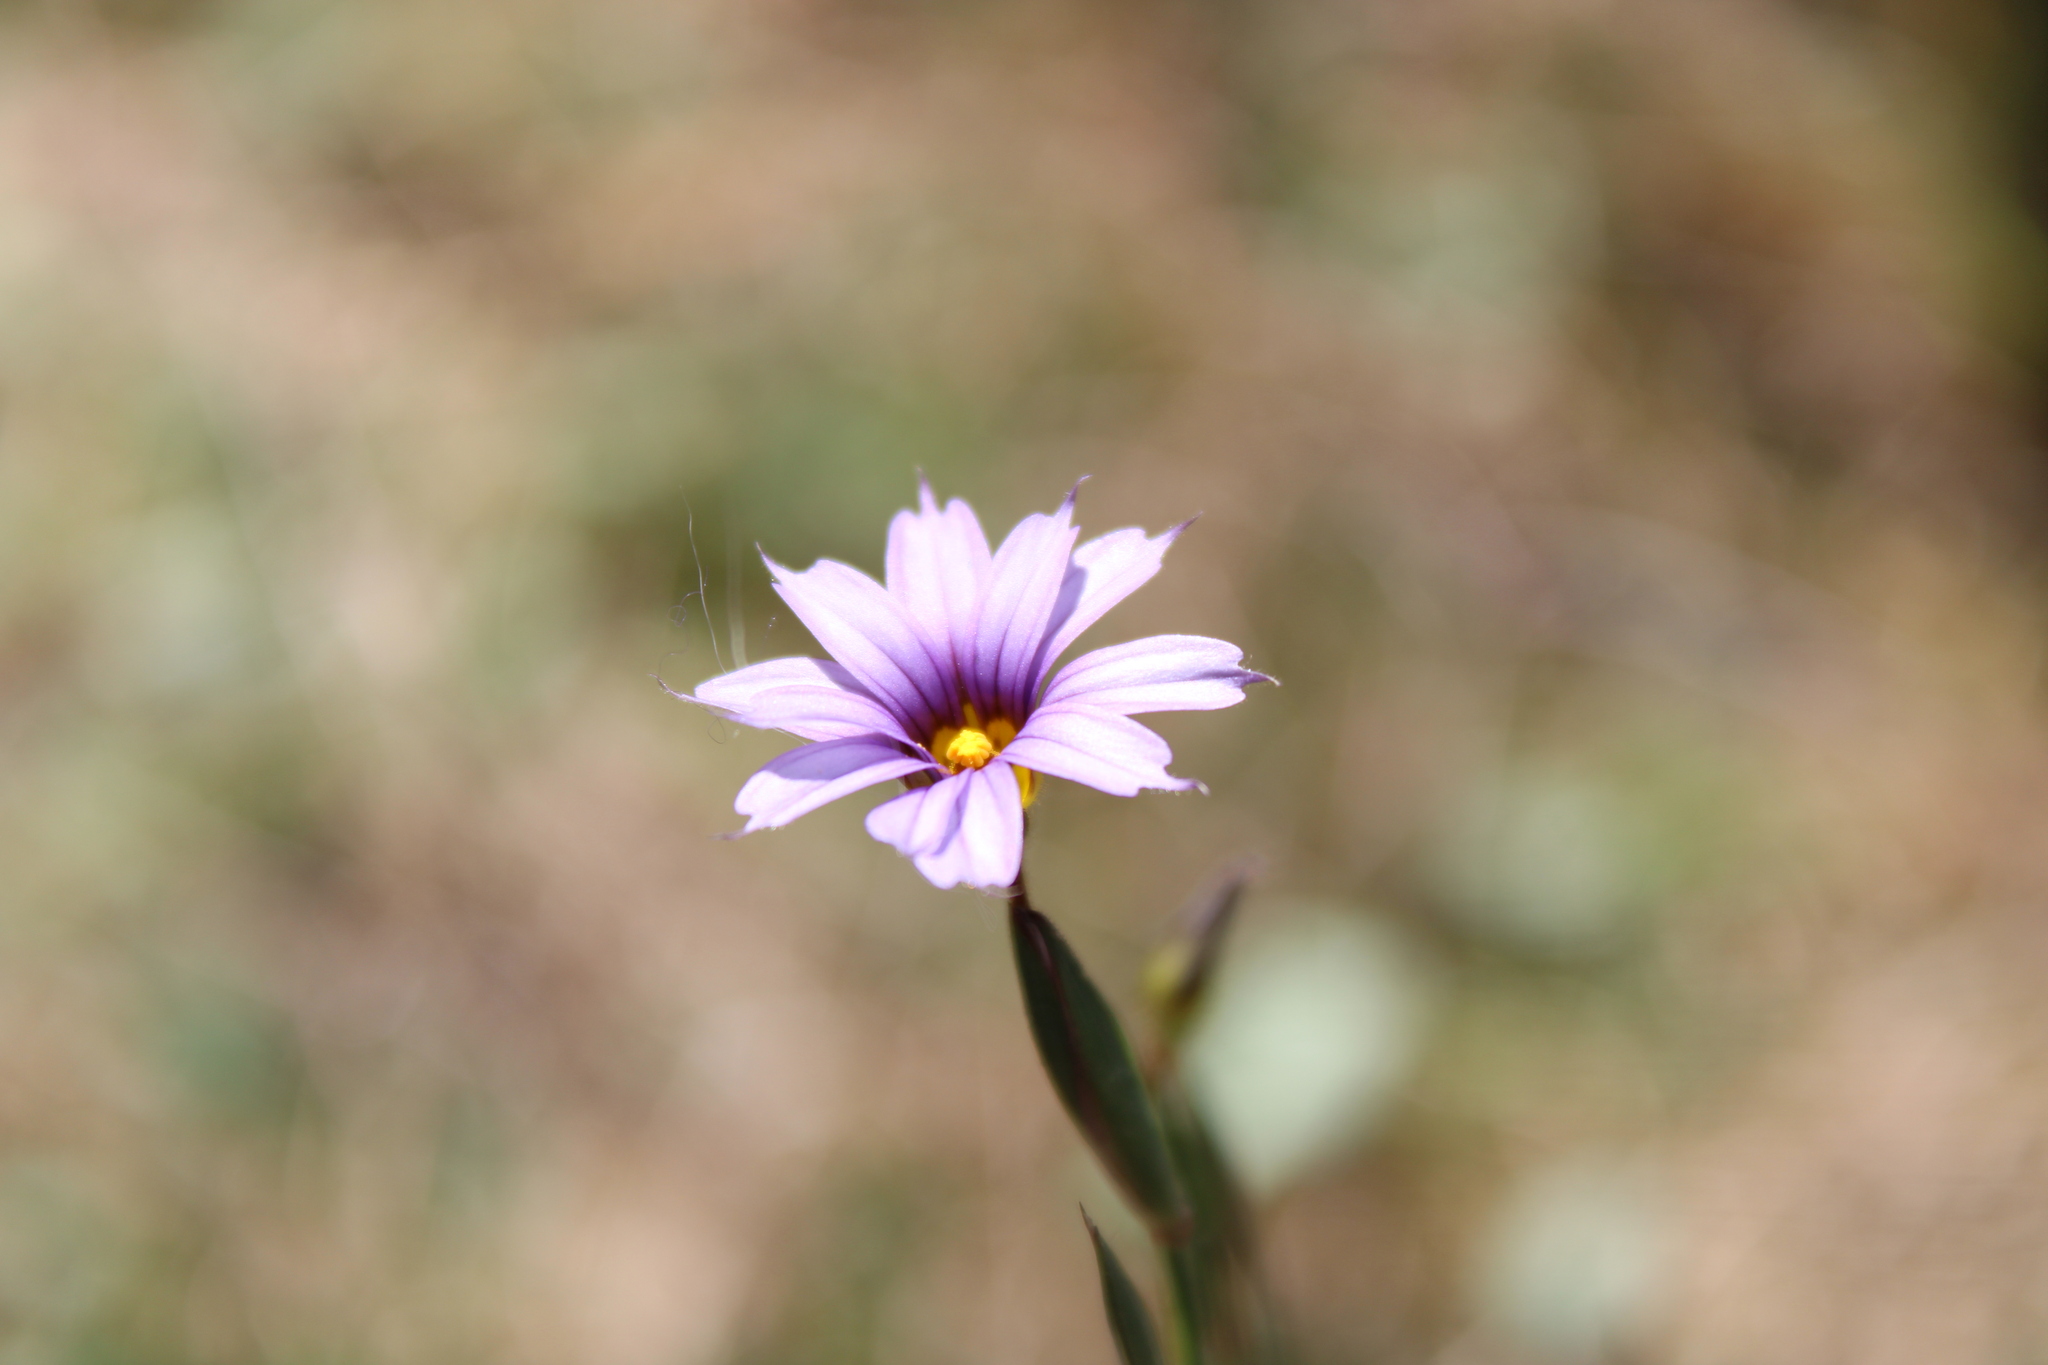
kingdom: Plantae
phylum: Tracheophyta
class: Liliopsida
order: Asparagales
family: Iridaceae
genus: Sisyrinchium
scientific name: Sisyrinchium platense
